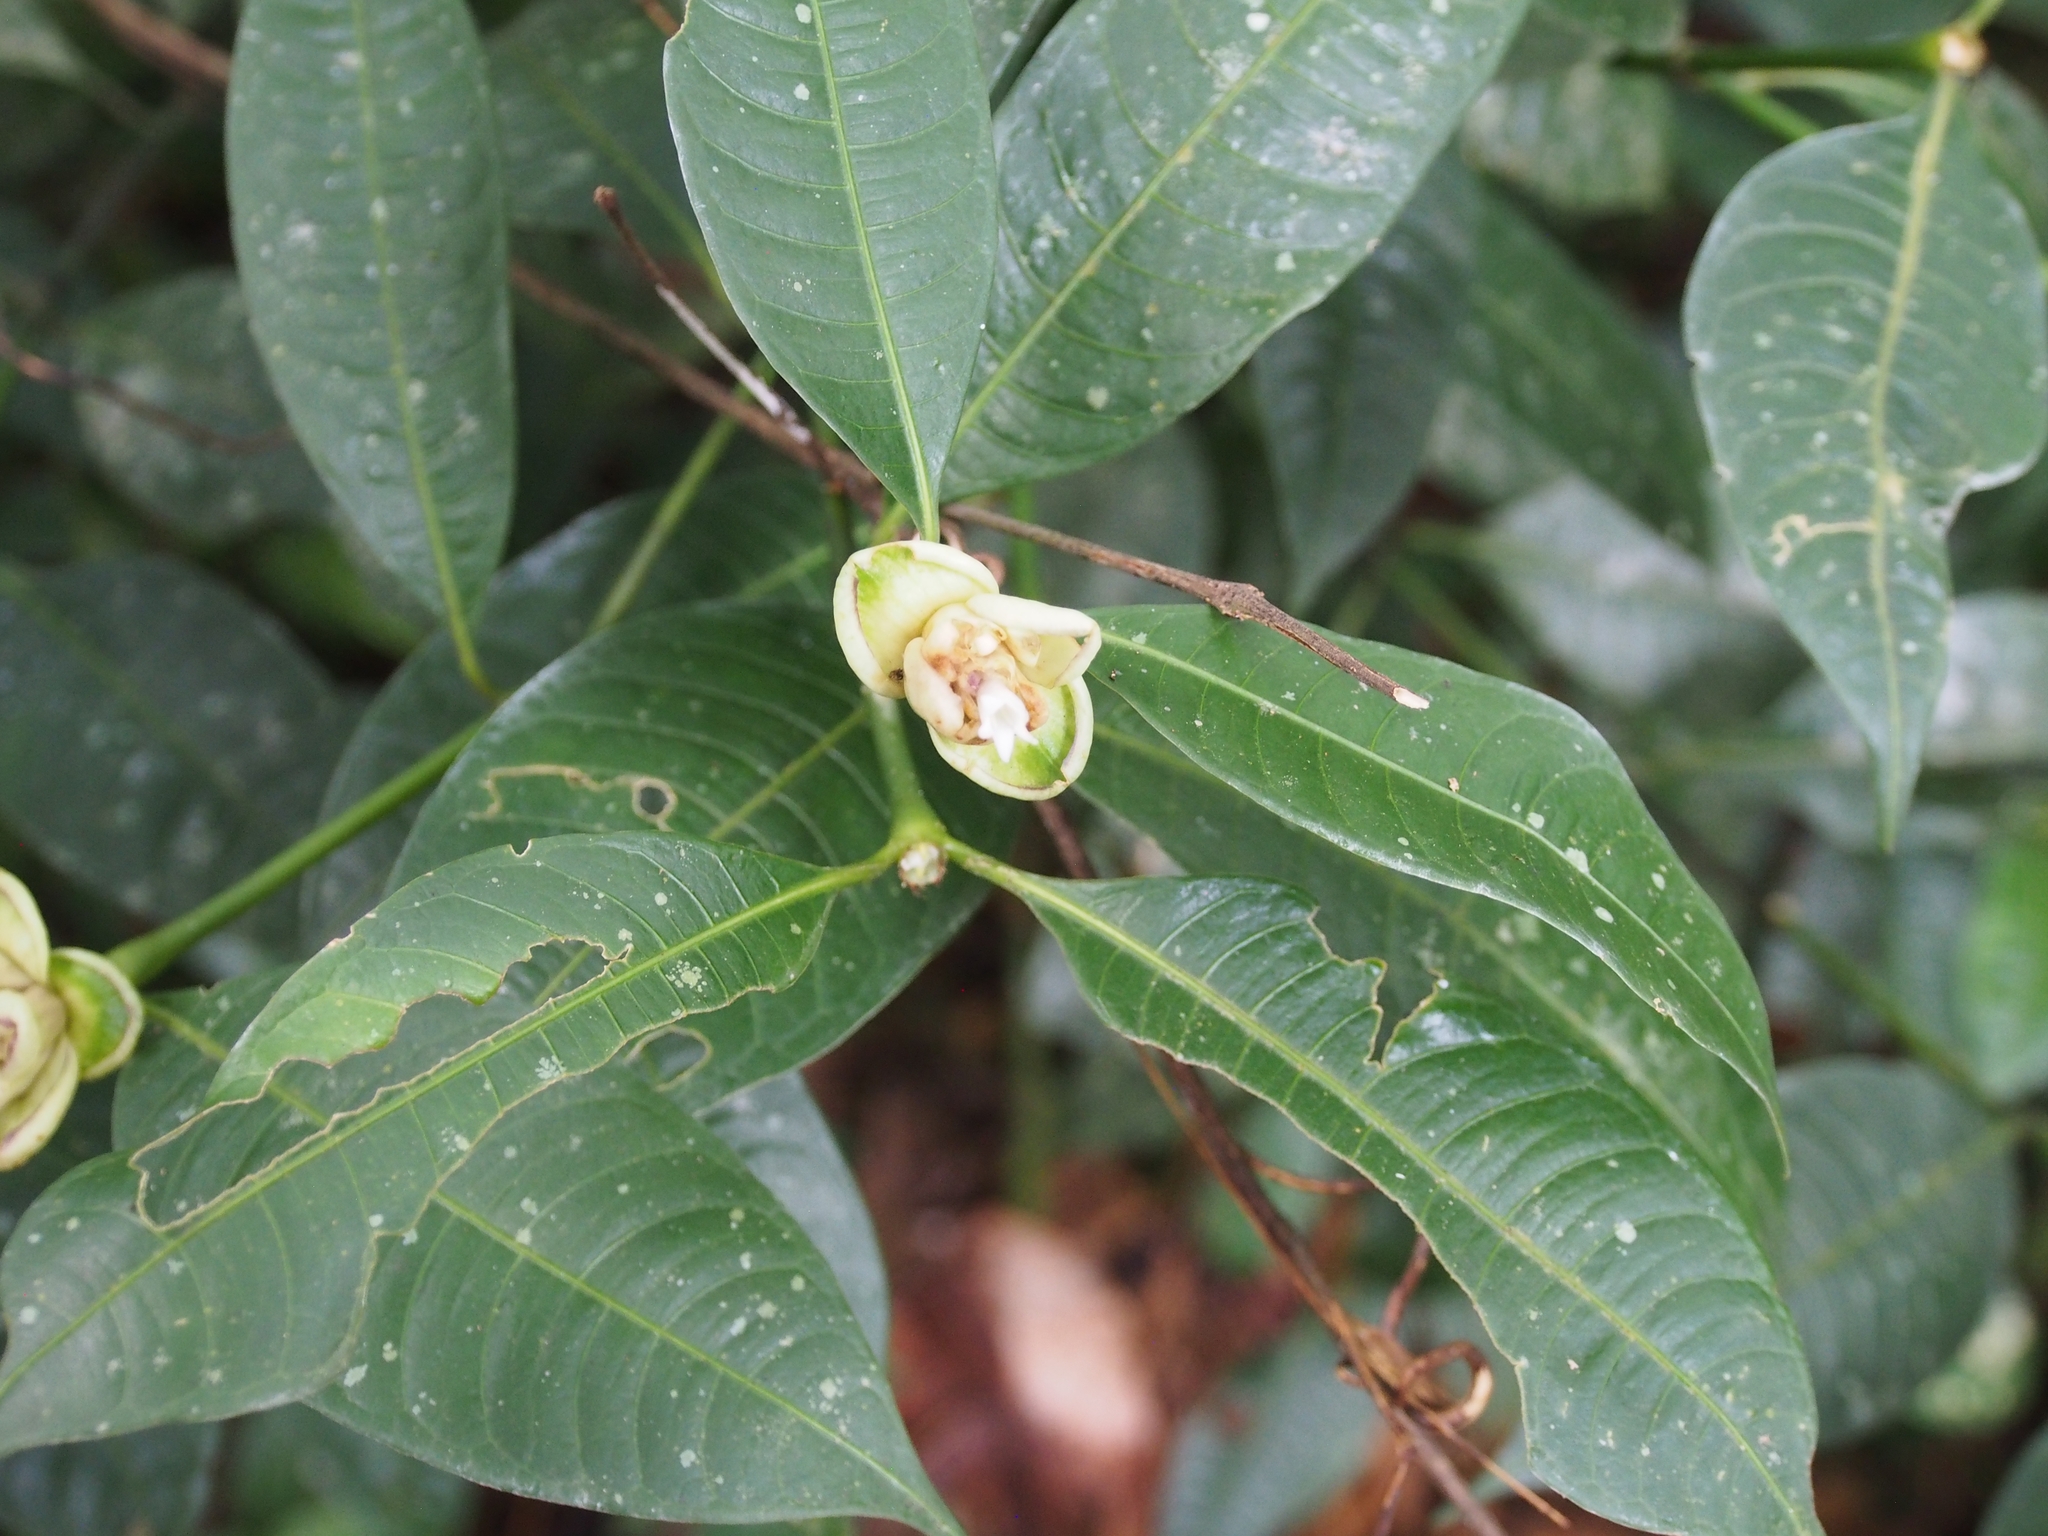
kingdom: Plantae
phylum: Tracheophyta
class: Magnoliopsida
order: Gentianales
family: Rubiaceae
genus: Palicourea
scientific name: Palicourea glomerulata
